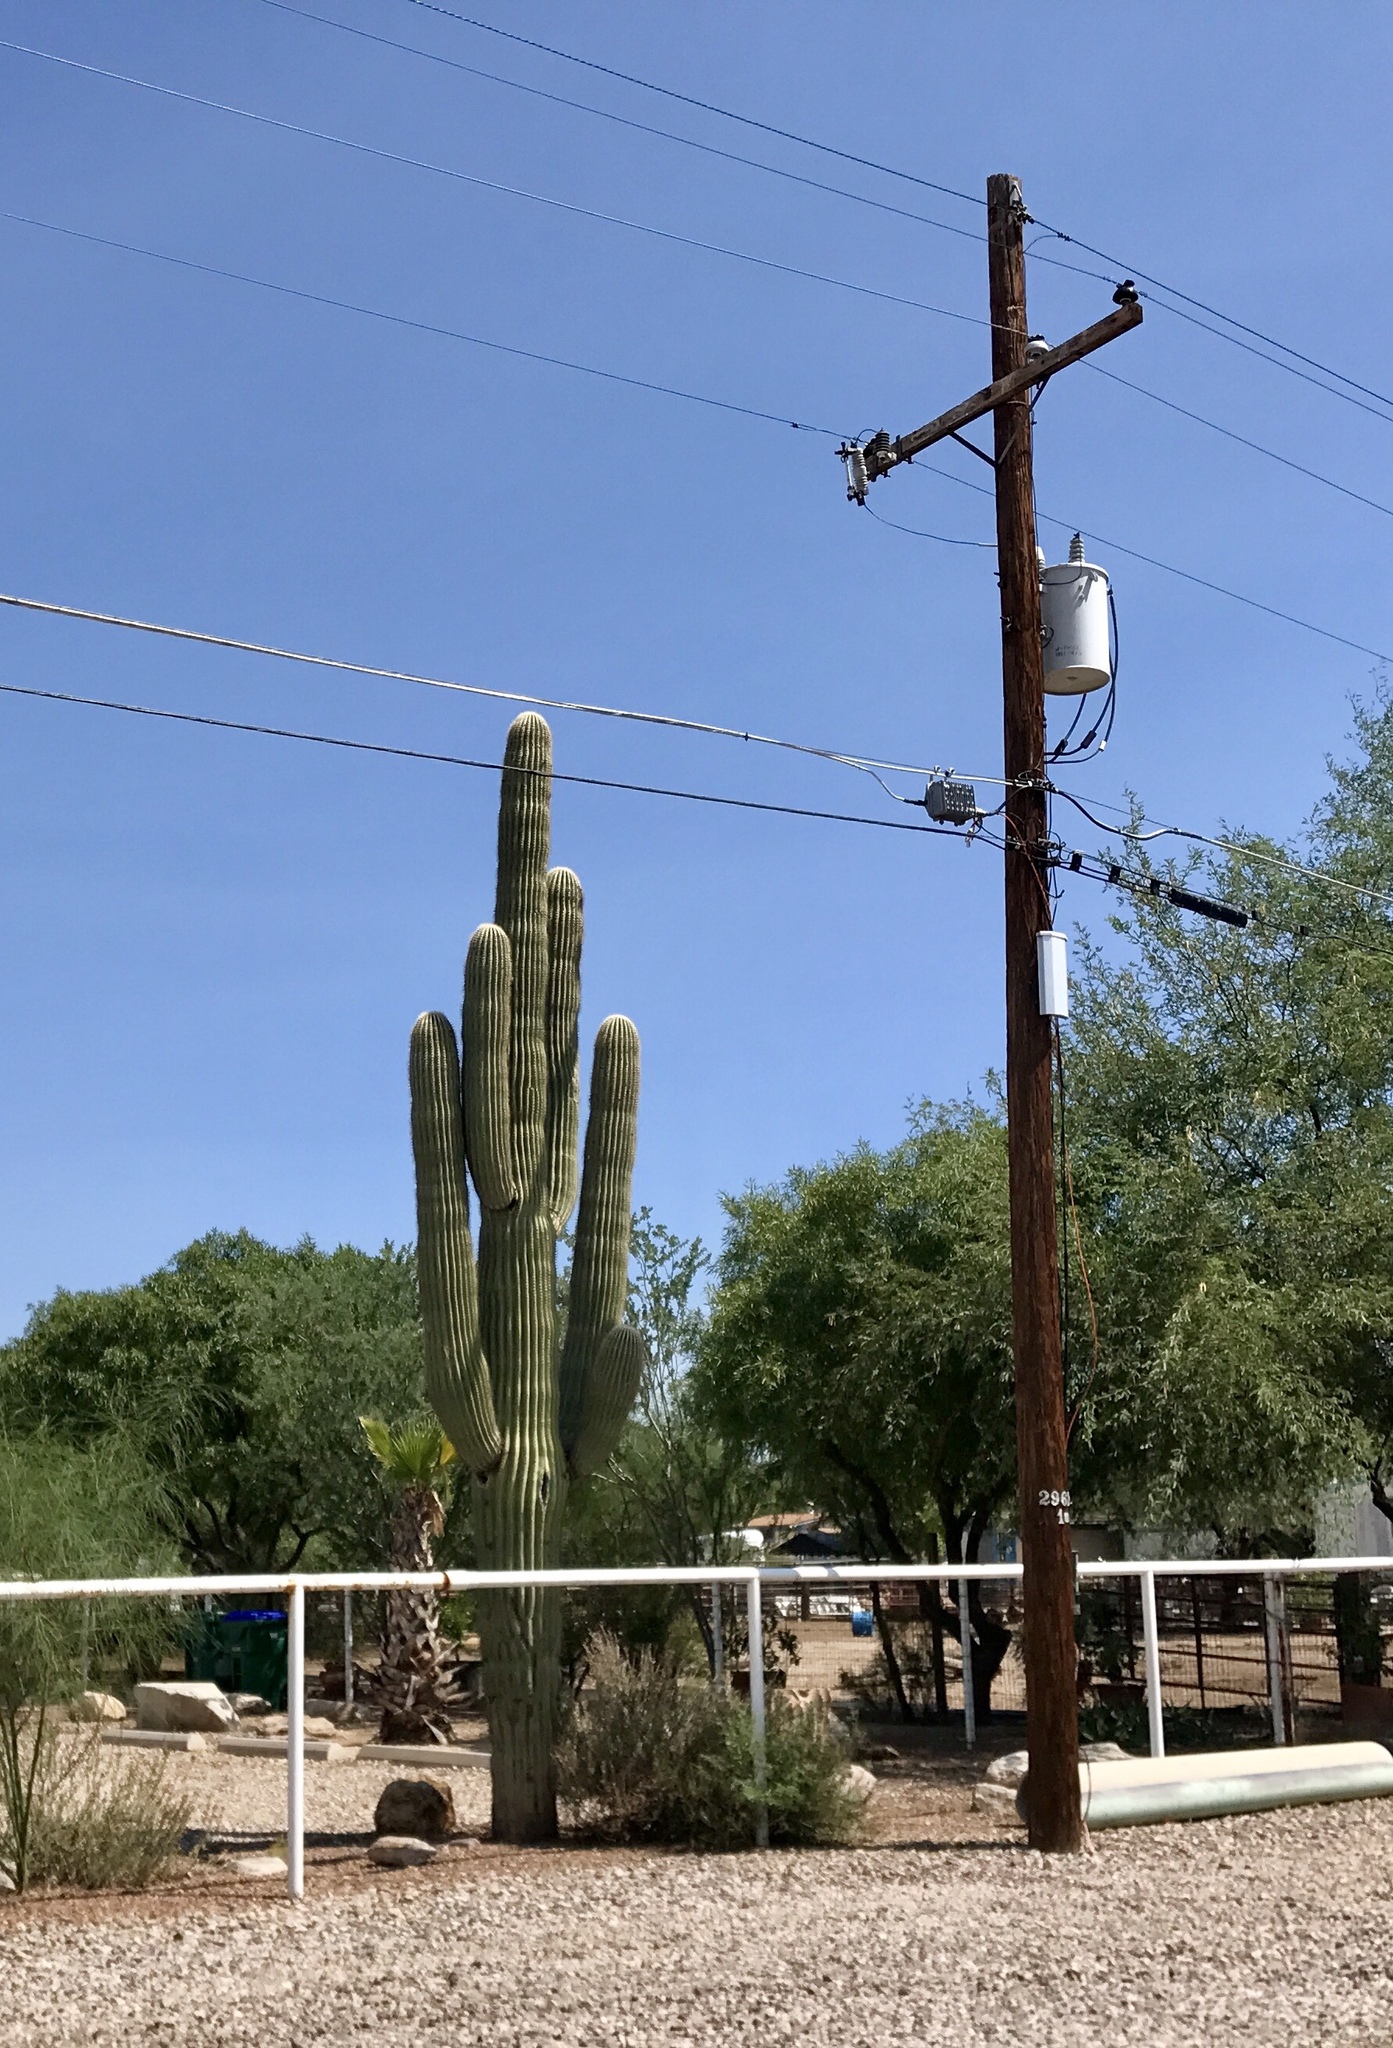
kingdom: Plantae
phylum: Tracheophyta
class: Magnoliopsida
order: Caryophyllales
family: Cactaceae
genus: Carnegiea
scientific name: Carnegiea gigantea
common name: Saguaro
